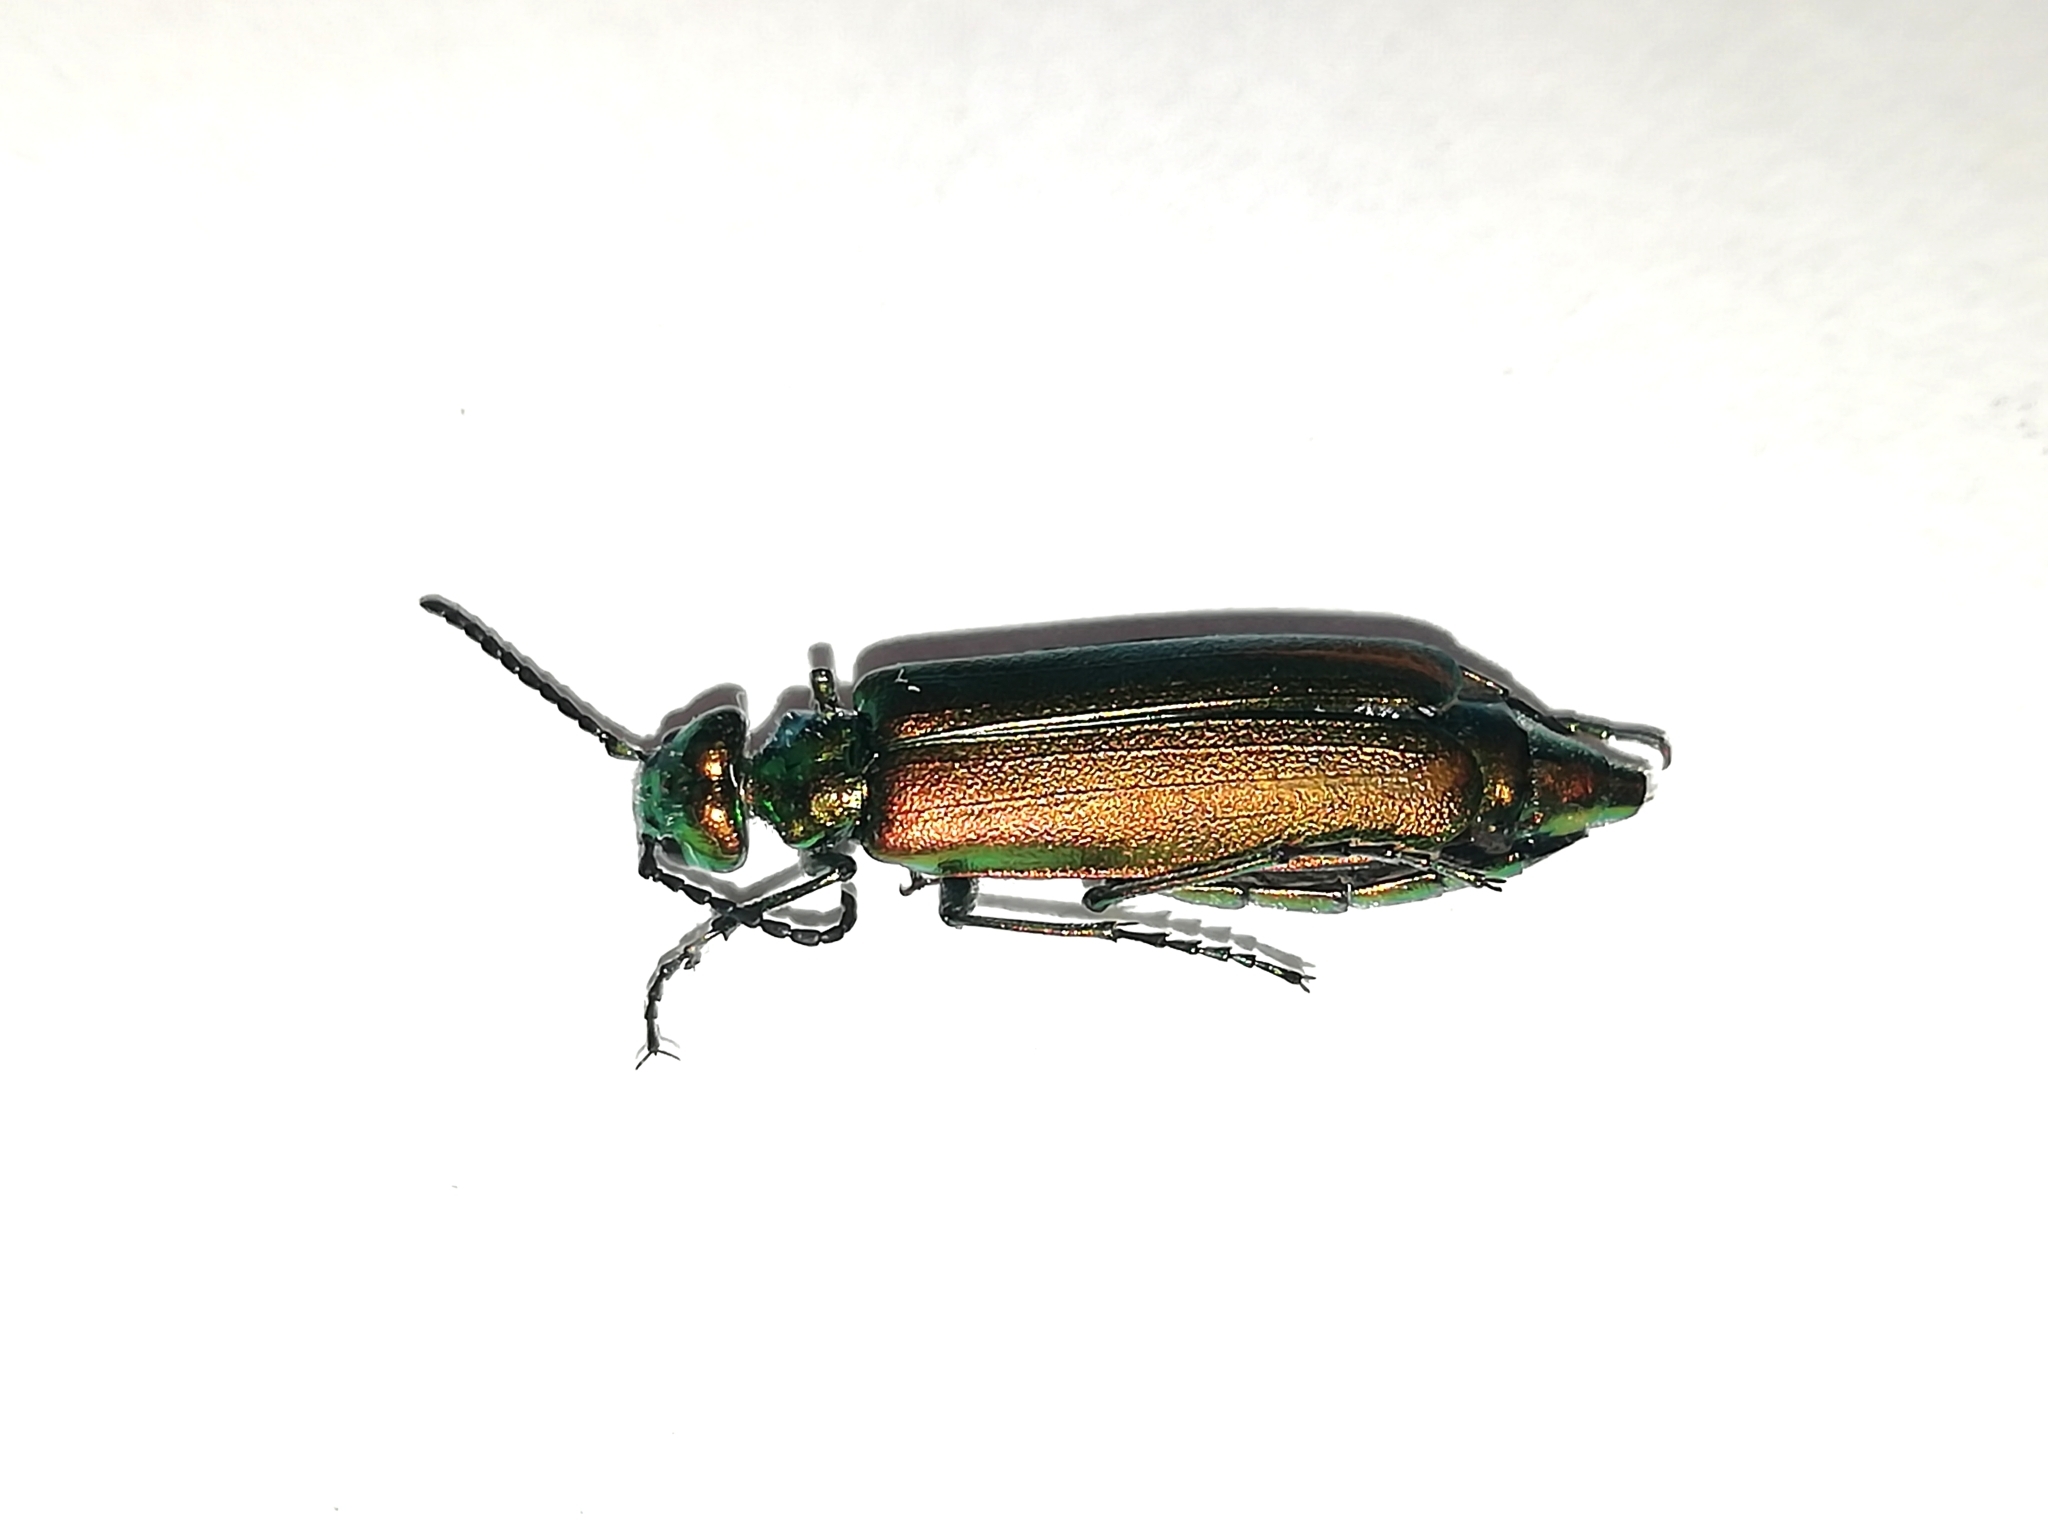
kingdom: Animalia
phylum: Arthropoda
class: Insecta
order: Coleoptera
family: Meloidae
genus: Lytta
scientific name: Lytta vesicatoria
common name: Spanish fly
